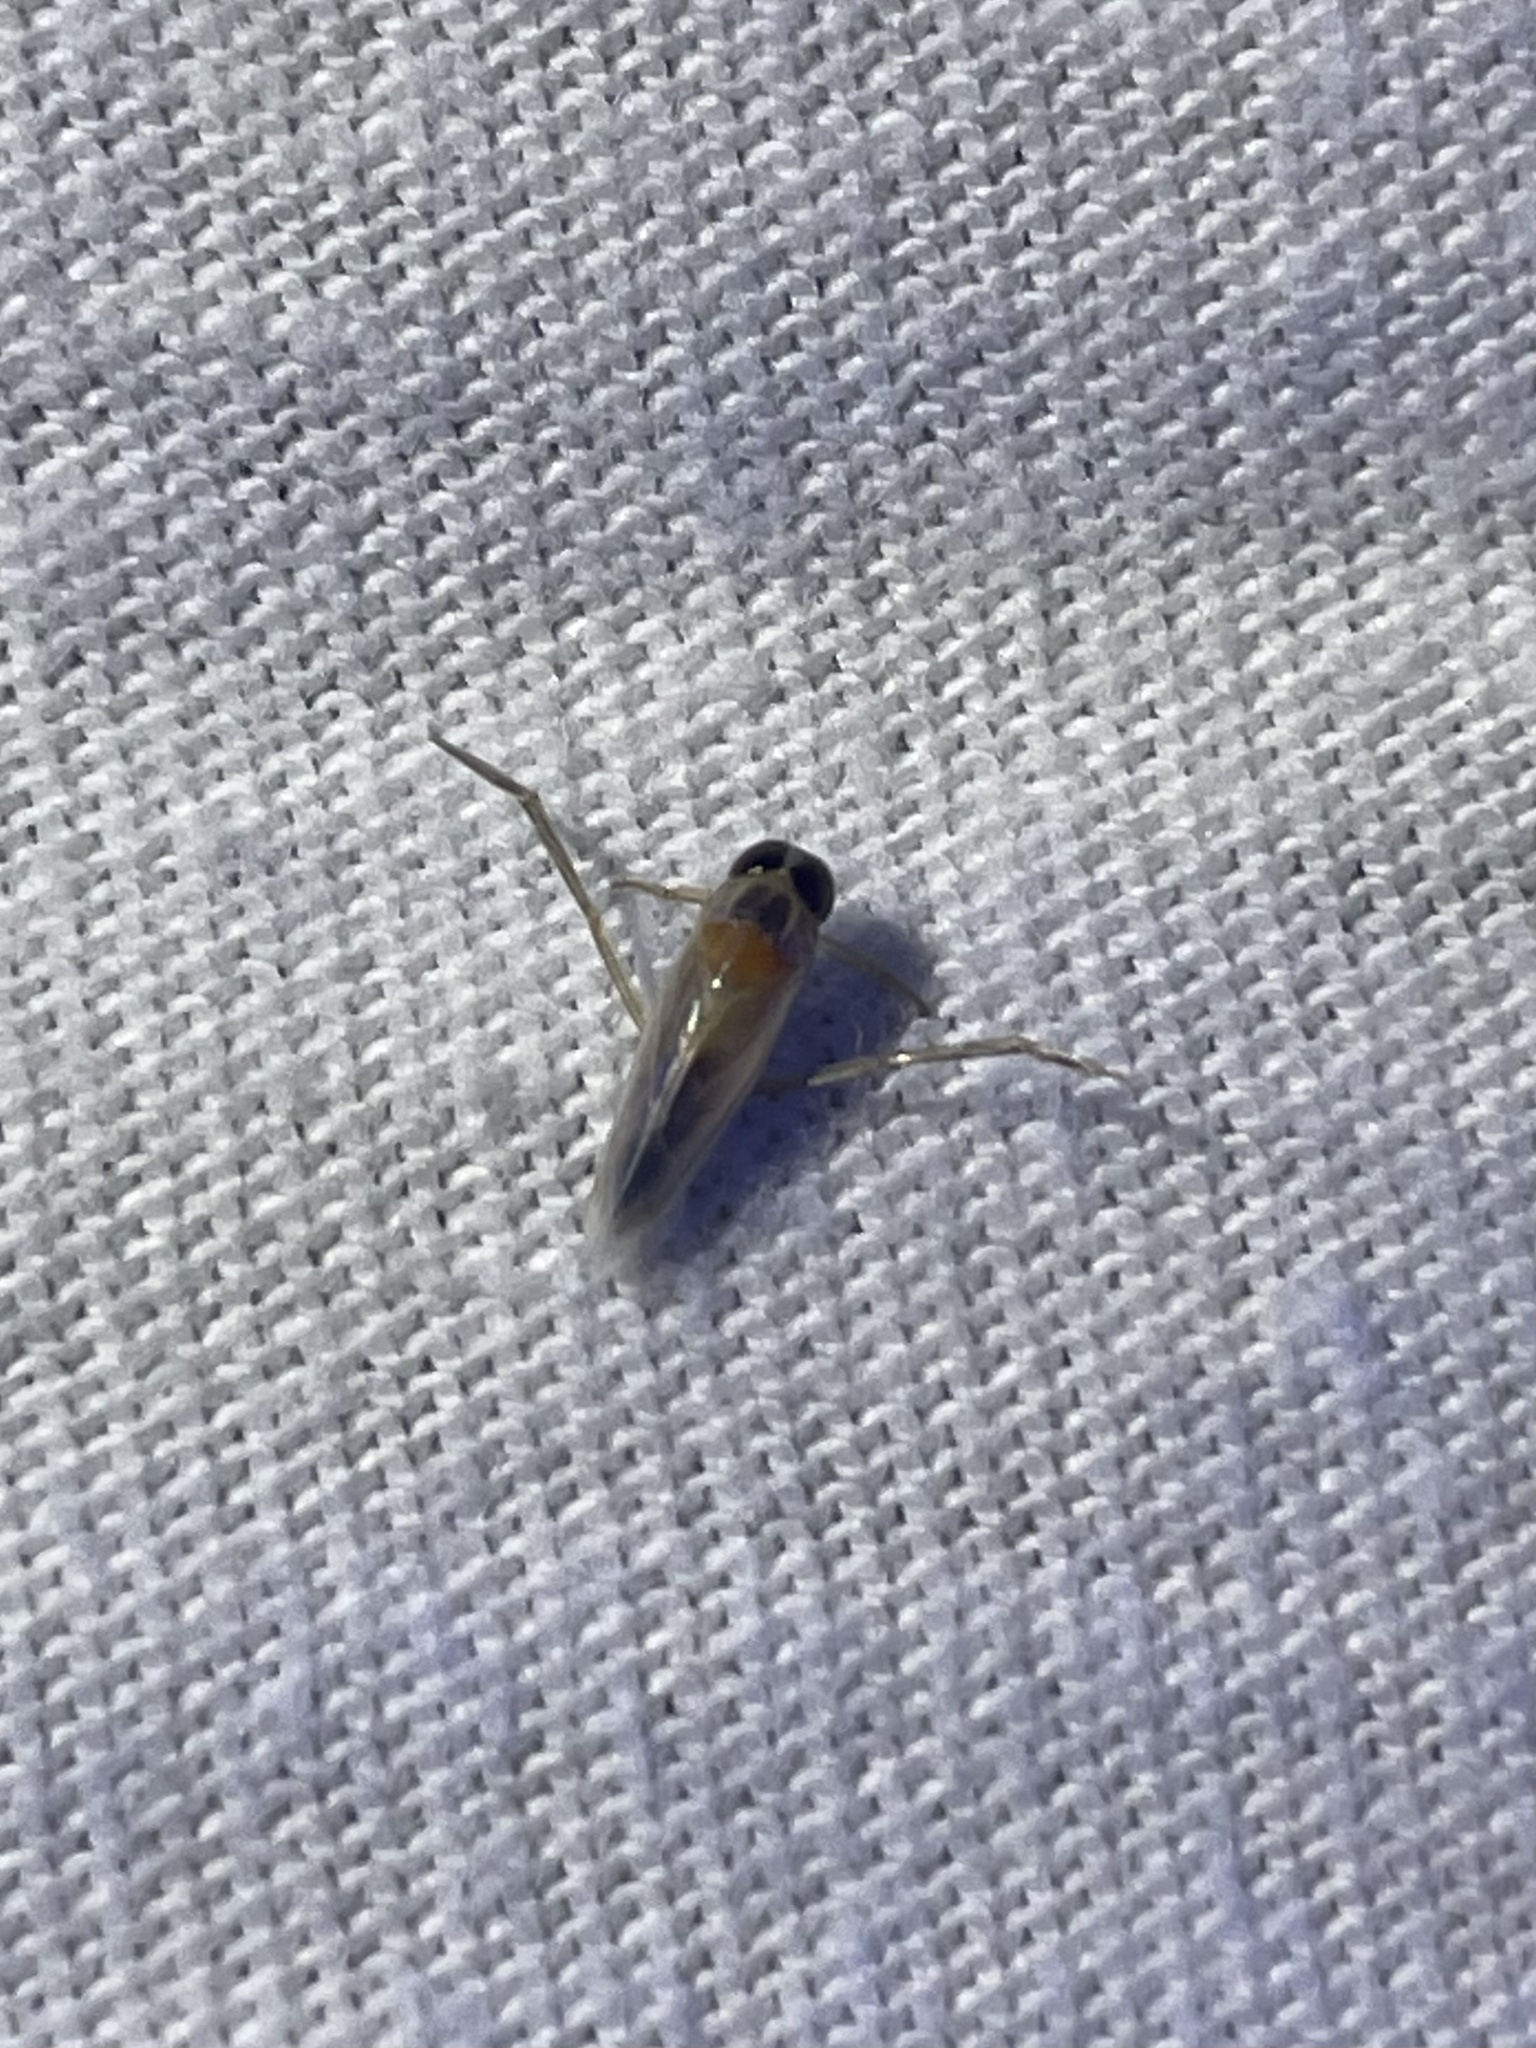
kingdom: Animalia
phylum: Arthropoda
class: Insecta
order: Hemiptera
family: Notonectidae
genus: Buenoa
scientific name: Buenoa
